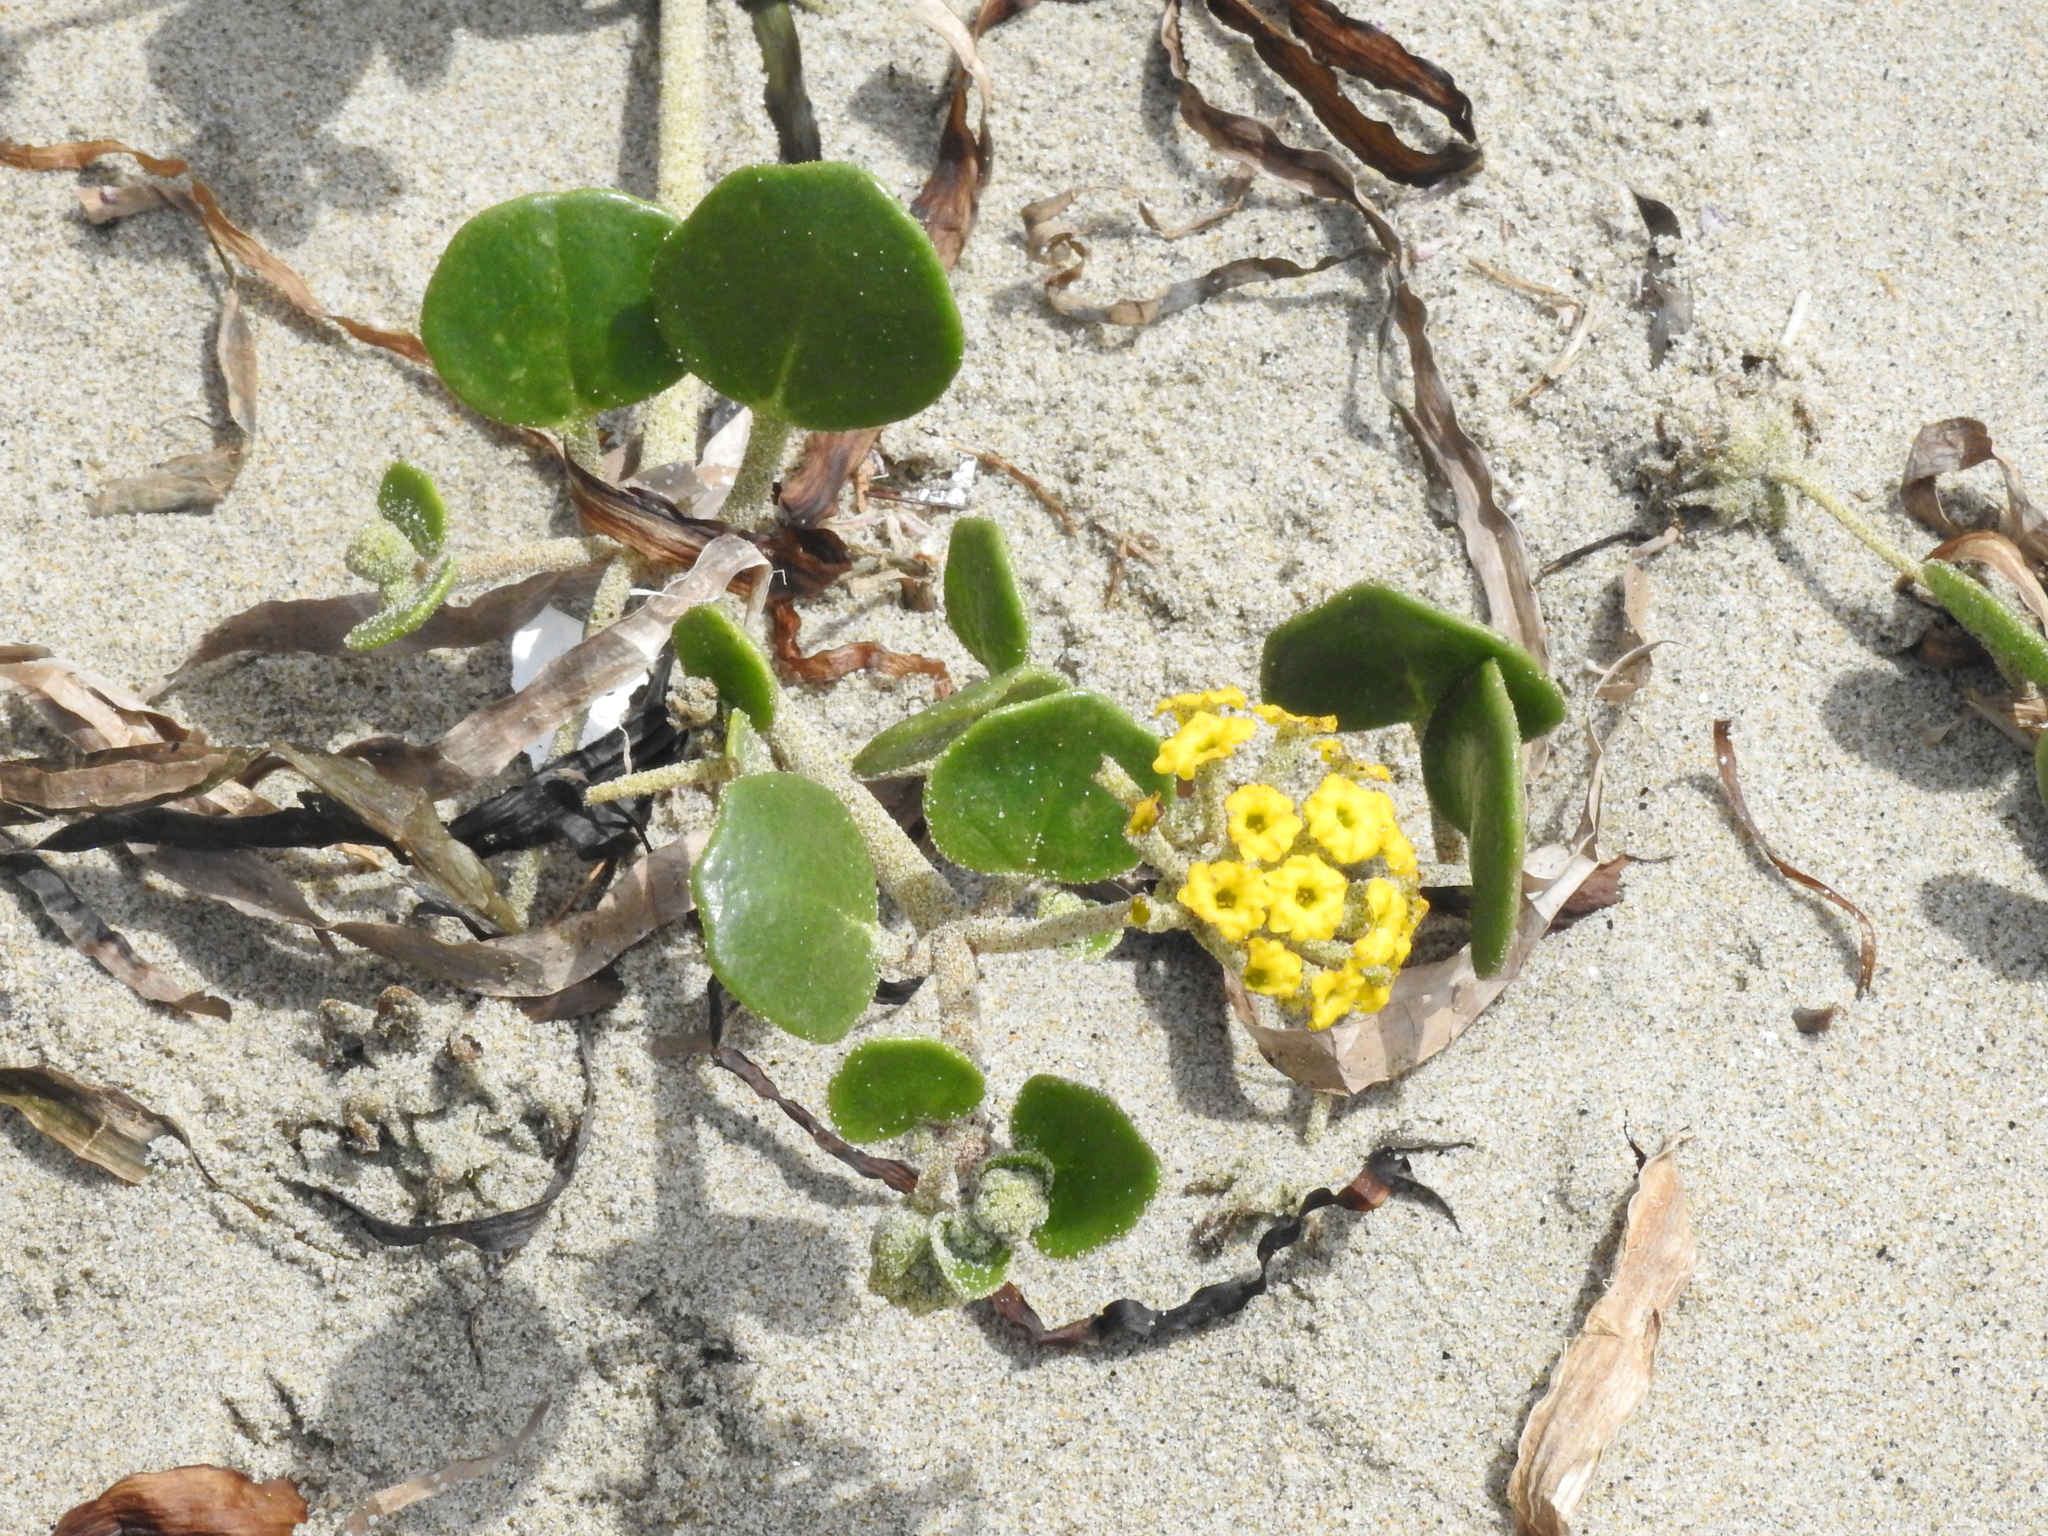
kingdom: Plantae
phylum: Tracheophyta
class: Magnoliopsida
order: Caryophyllales
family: Nyctaginaceae
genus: Abronia
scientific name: Abronia latifolia
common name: Yellow sand-verbena
